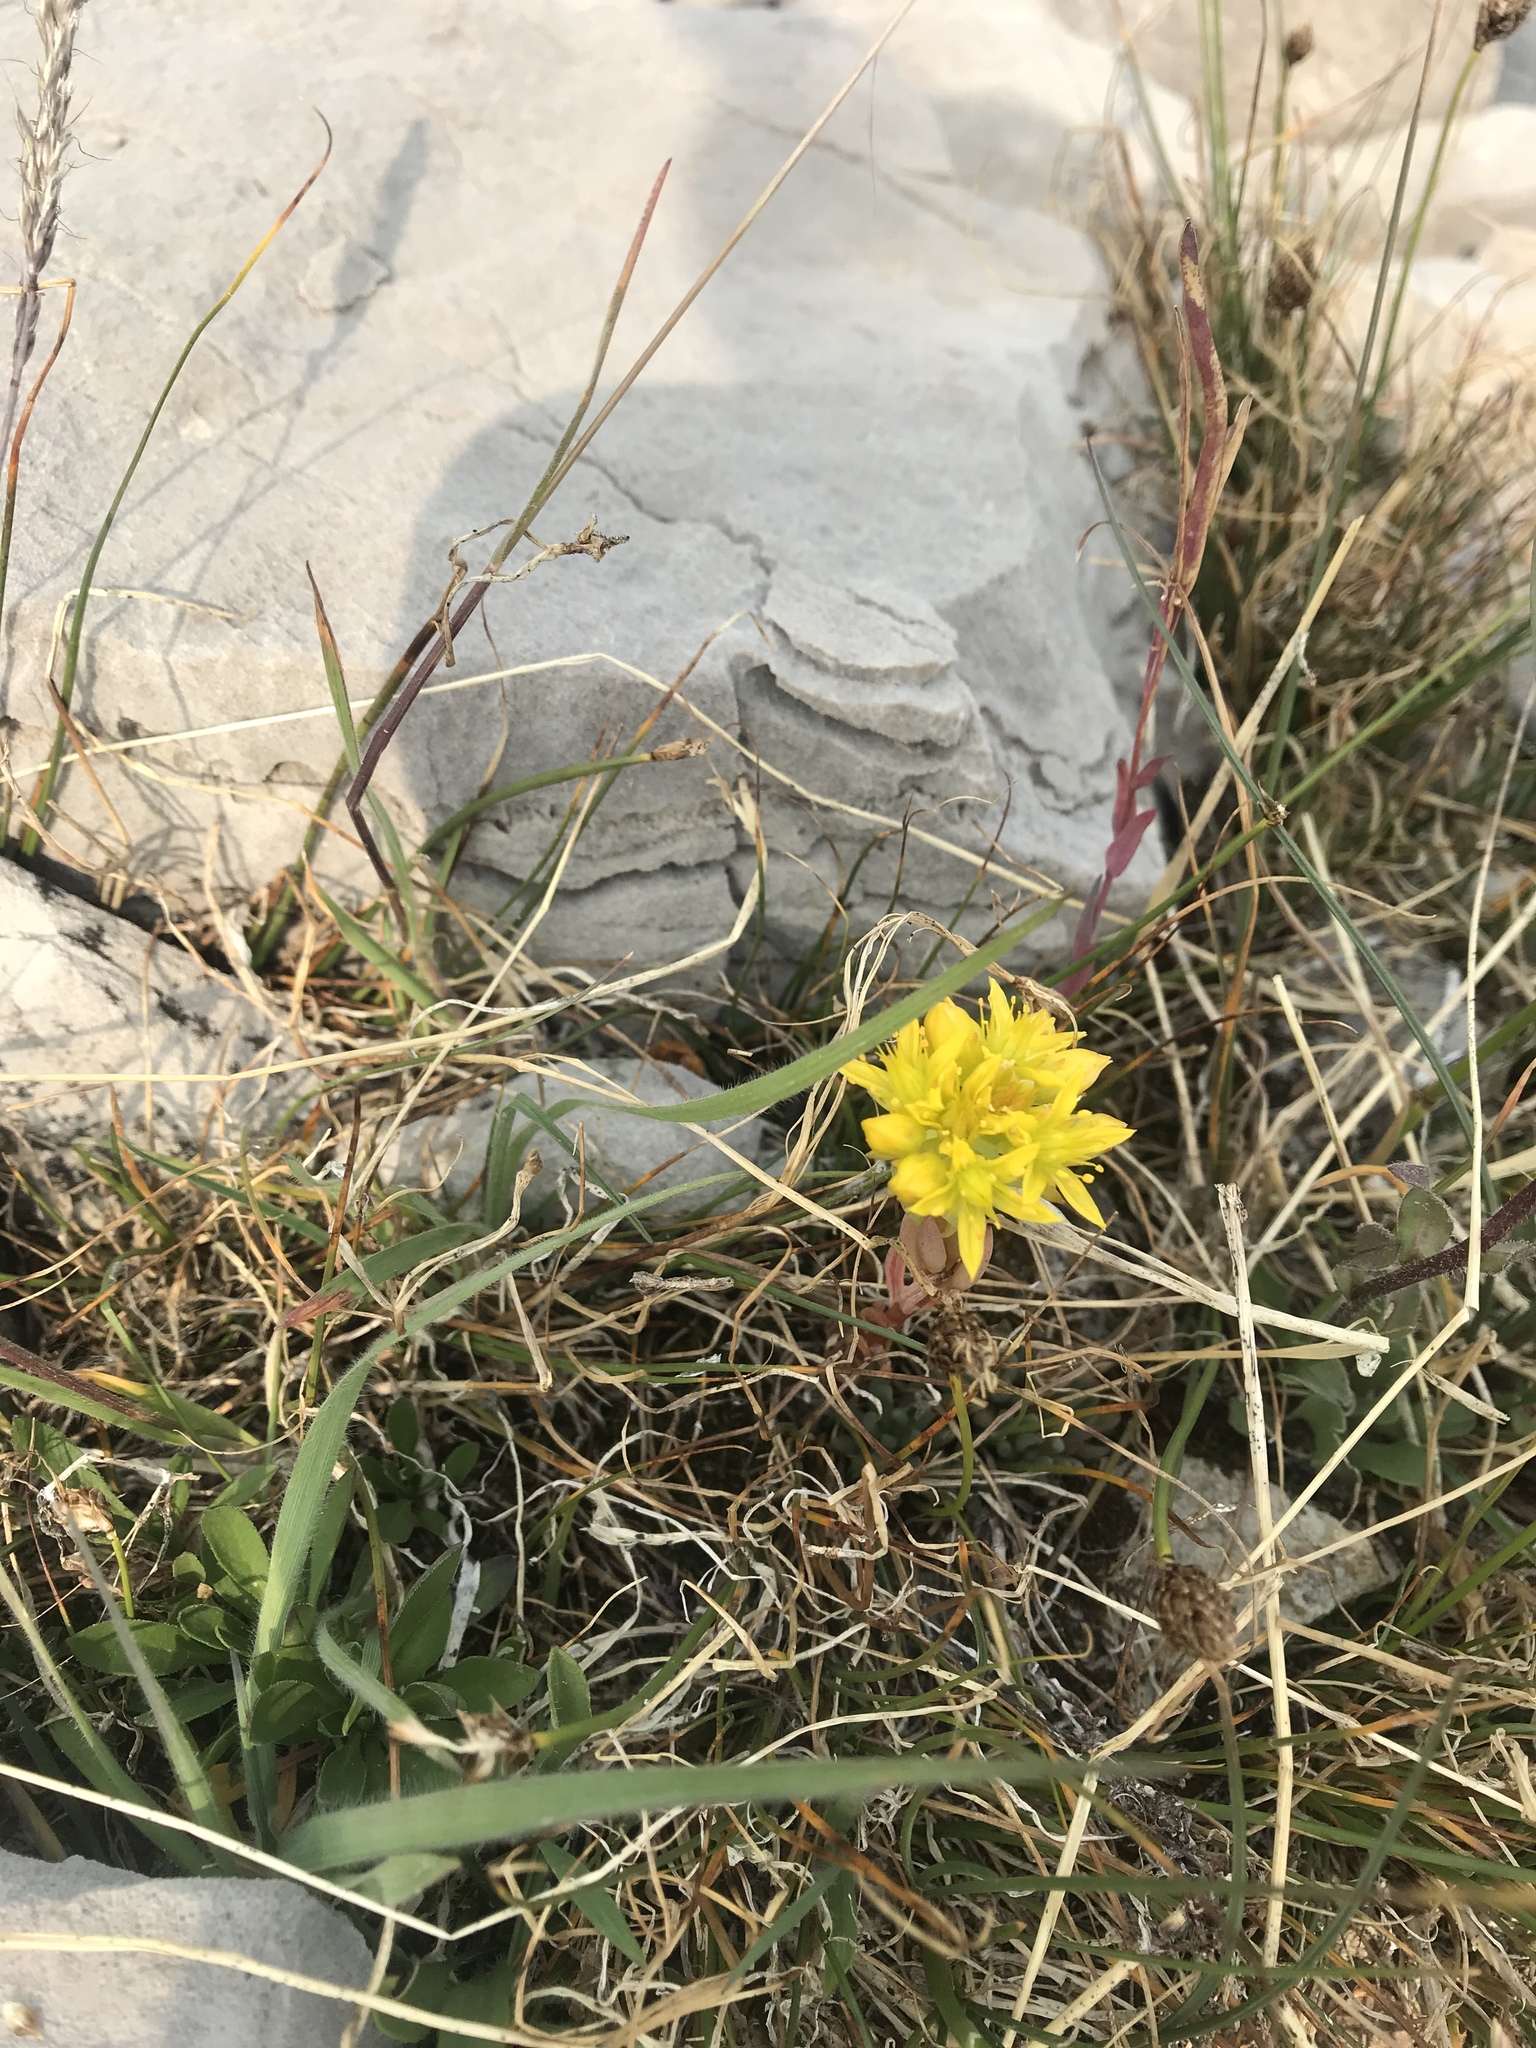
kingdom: Plantae
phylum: Tracheophyta
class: Magnoliopsida
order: Saxifragales
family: Crassulaceae
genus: Sedum
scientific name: Sedum lanceolatum
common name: Common stonecrop
